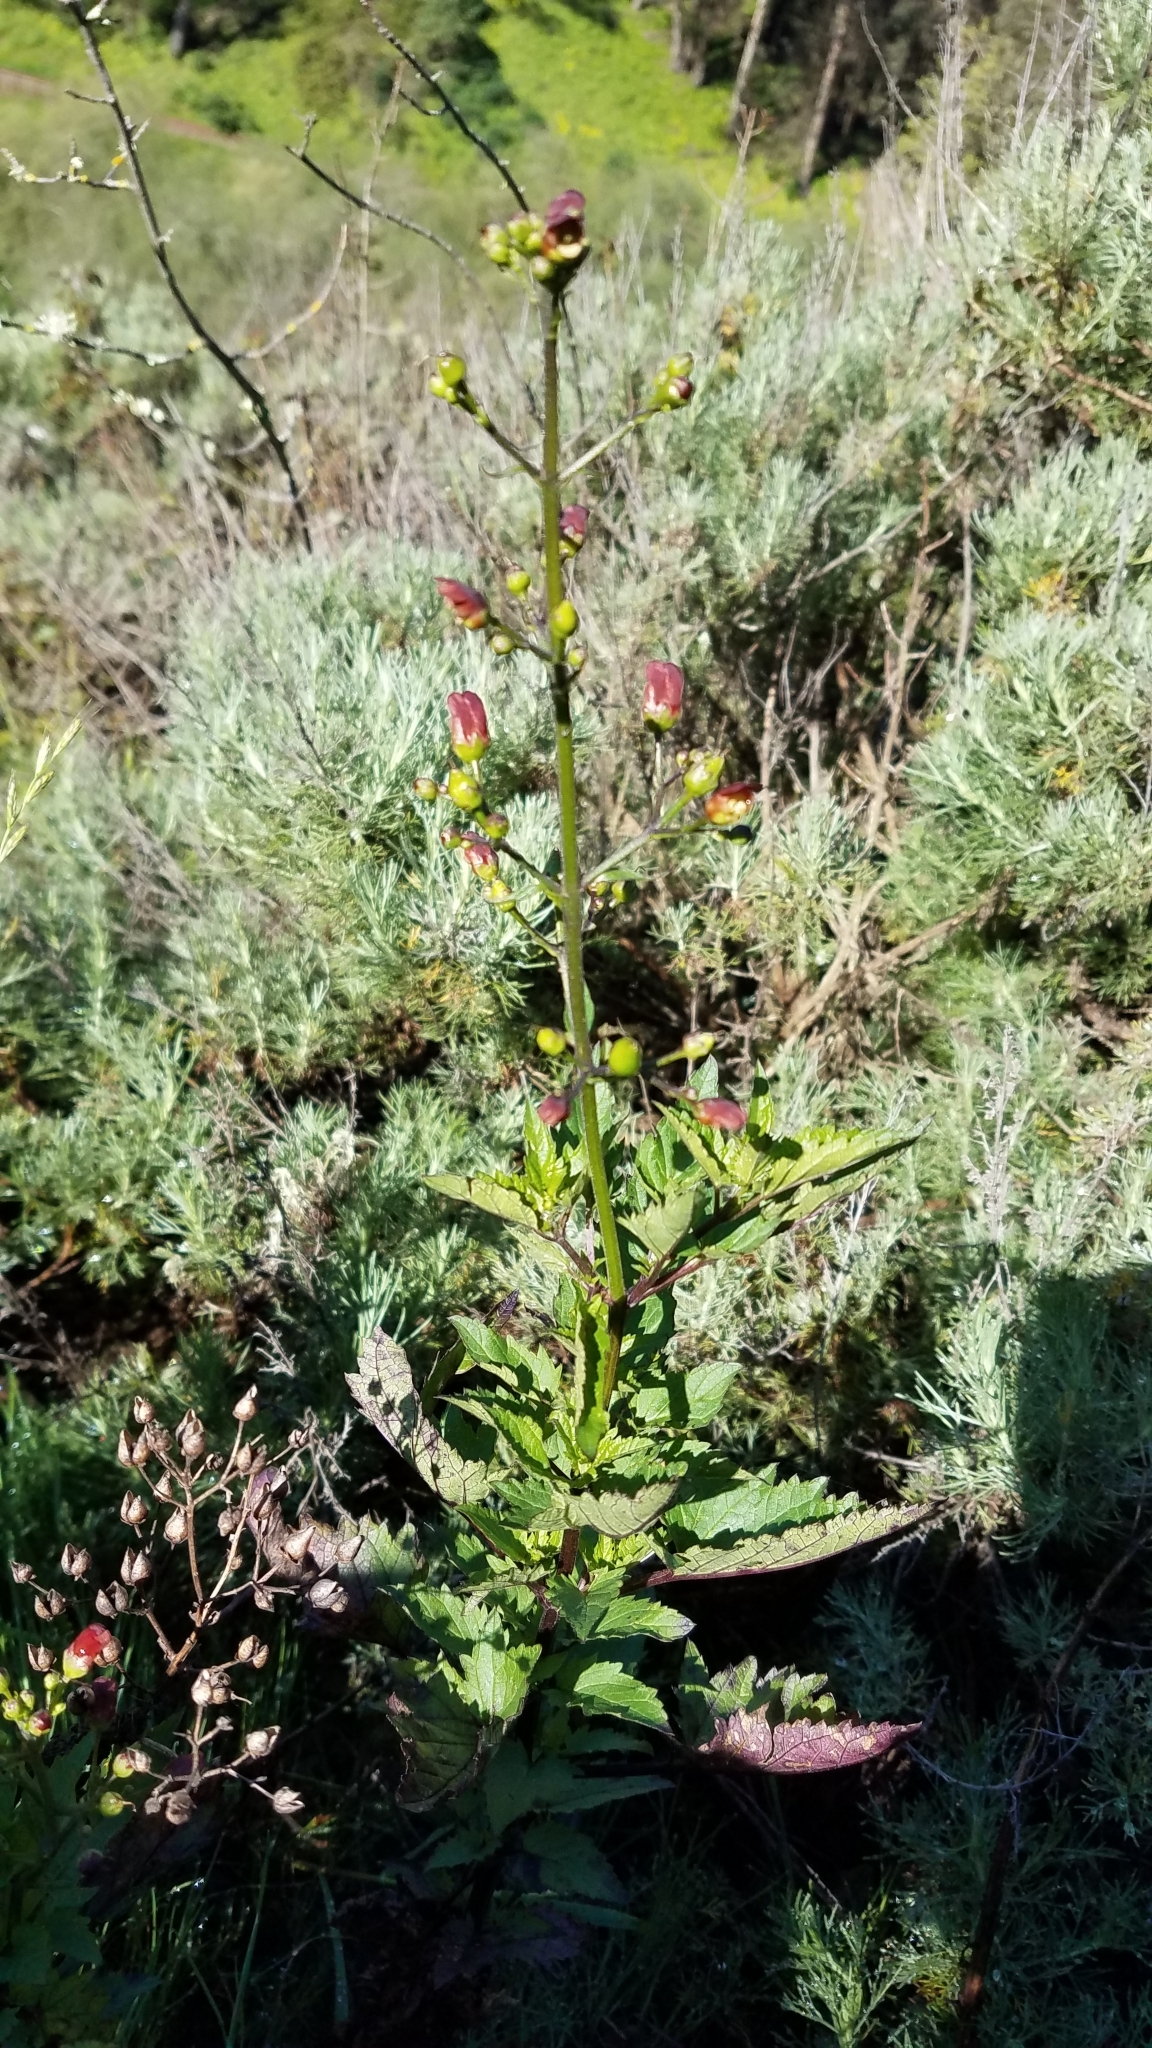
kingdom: Plantae
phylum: Tracheophyta
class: Magnoliopsida
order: Lamiales
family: Scrophulariaceae
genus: Scrophularia
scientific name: Scrophularia californica
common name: California figwort
